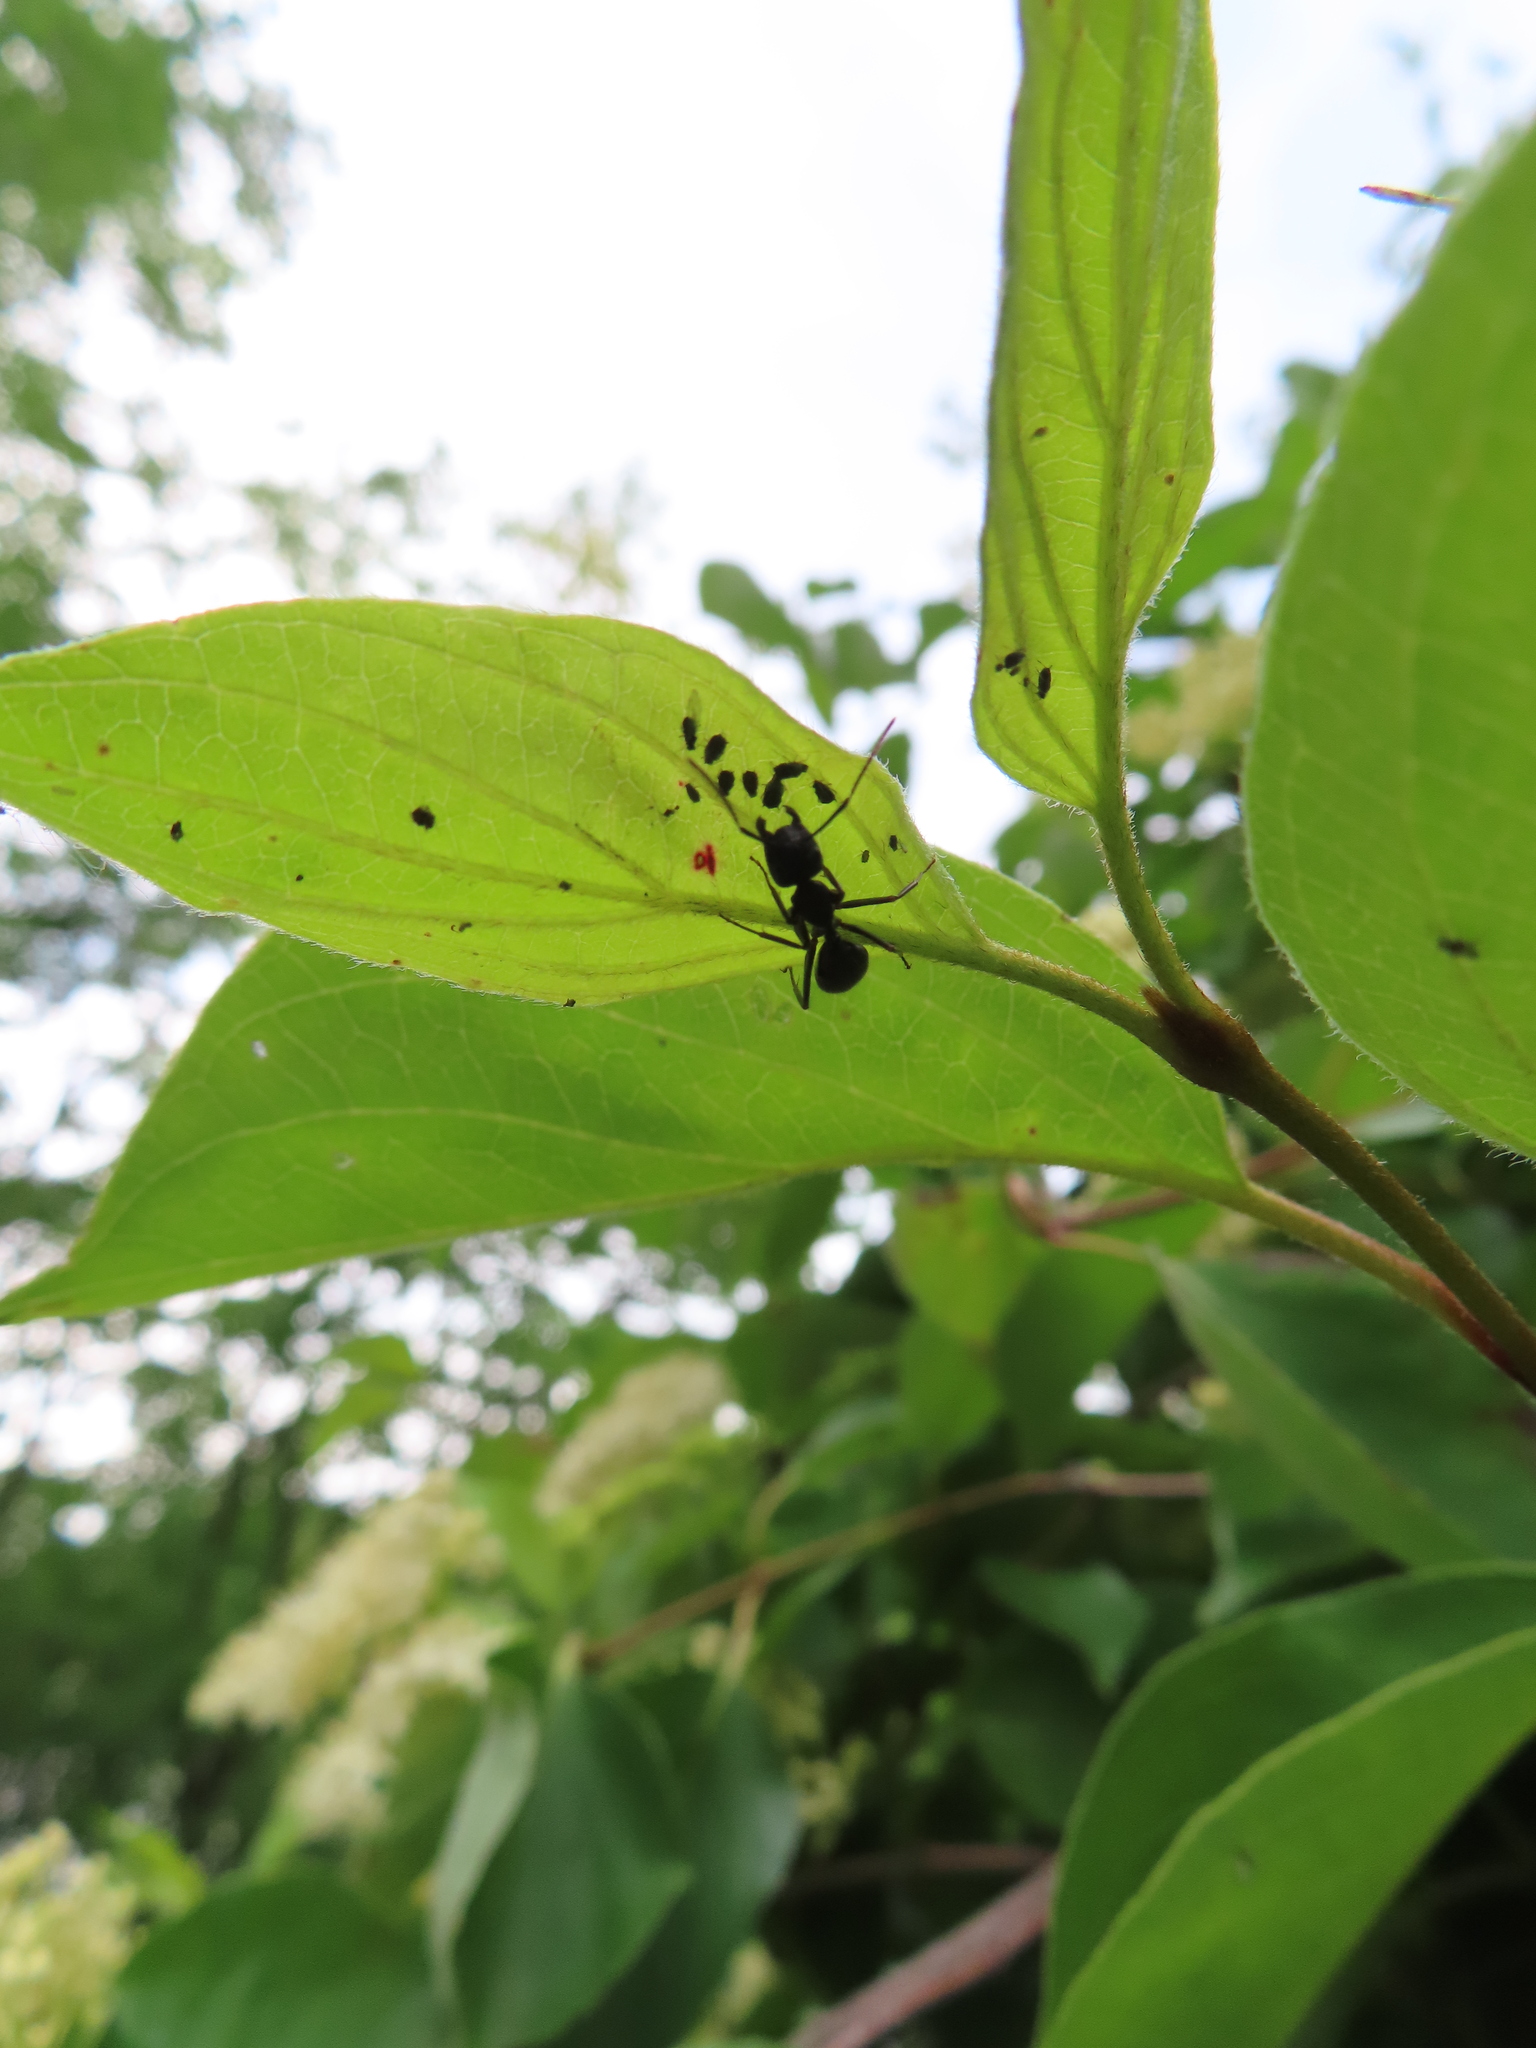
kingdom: Animalia
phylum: Arthropoda
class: Insecta
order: Hymenoptera
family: Formicidae
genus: Camponotus
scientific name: Camponotus pennsylvanicus
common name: Black carpenter ant
